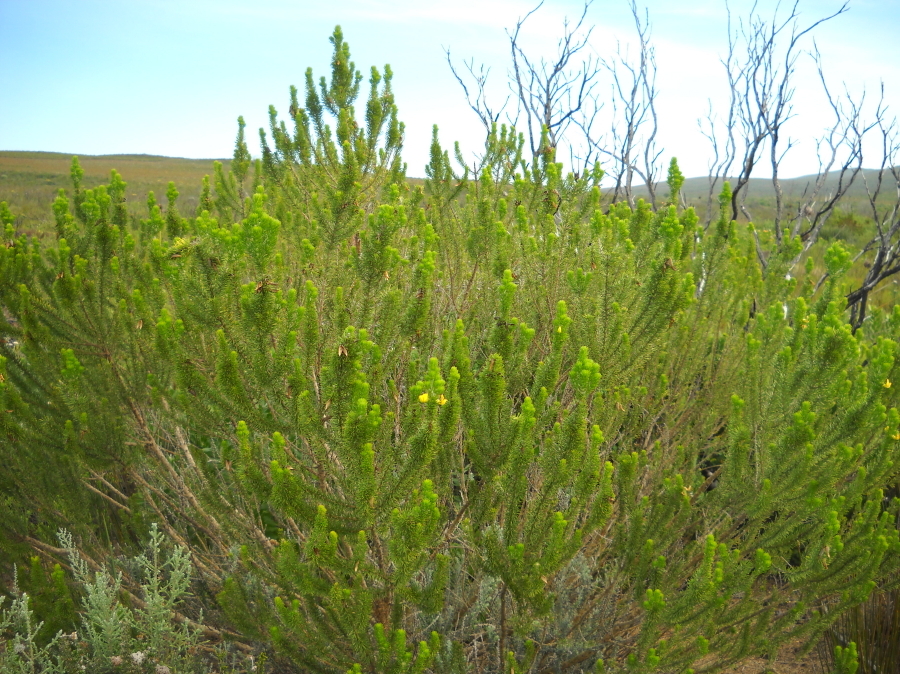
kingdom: Plantae
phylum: Tracheophyta
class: Magnoliopsida
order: Fabales
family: Fabaceae
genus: Aspalathus
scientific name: Aspalathus arenaria
